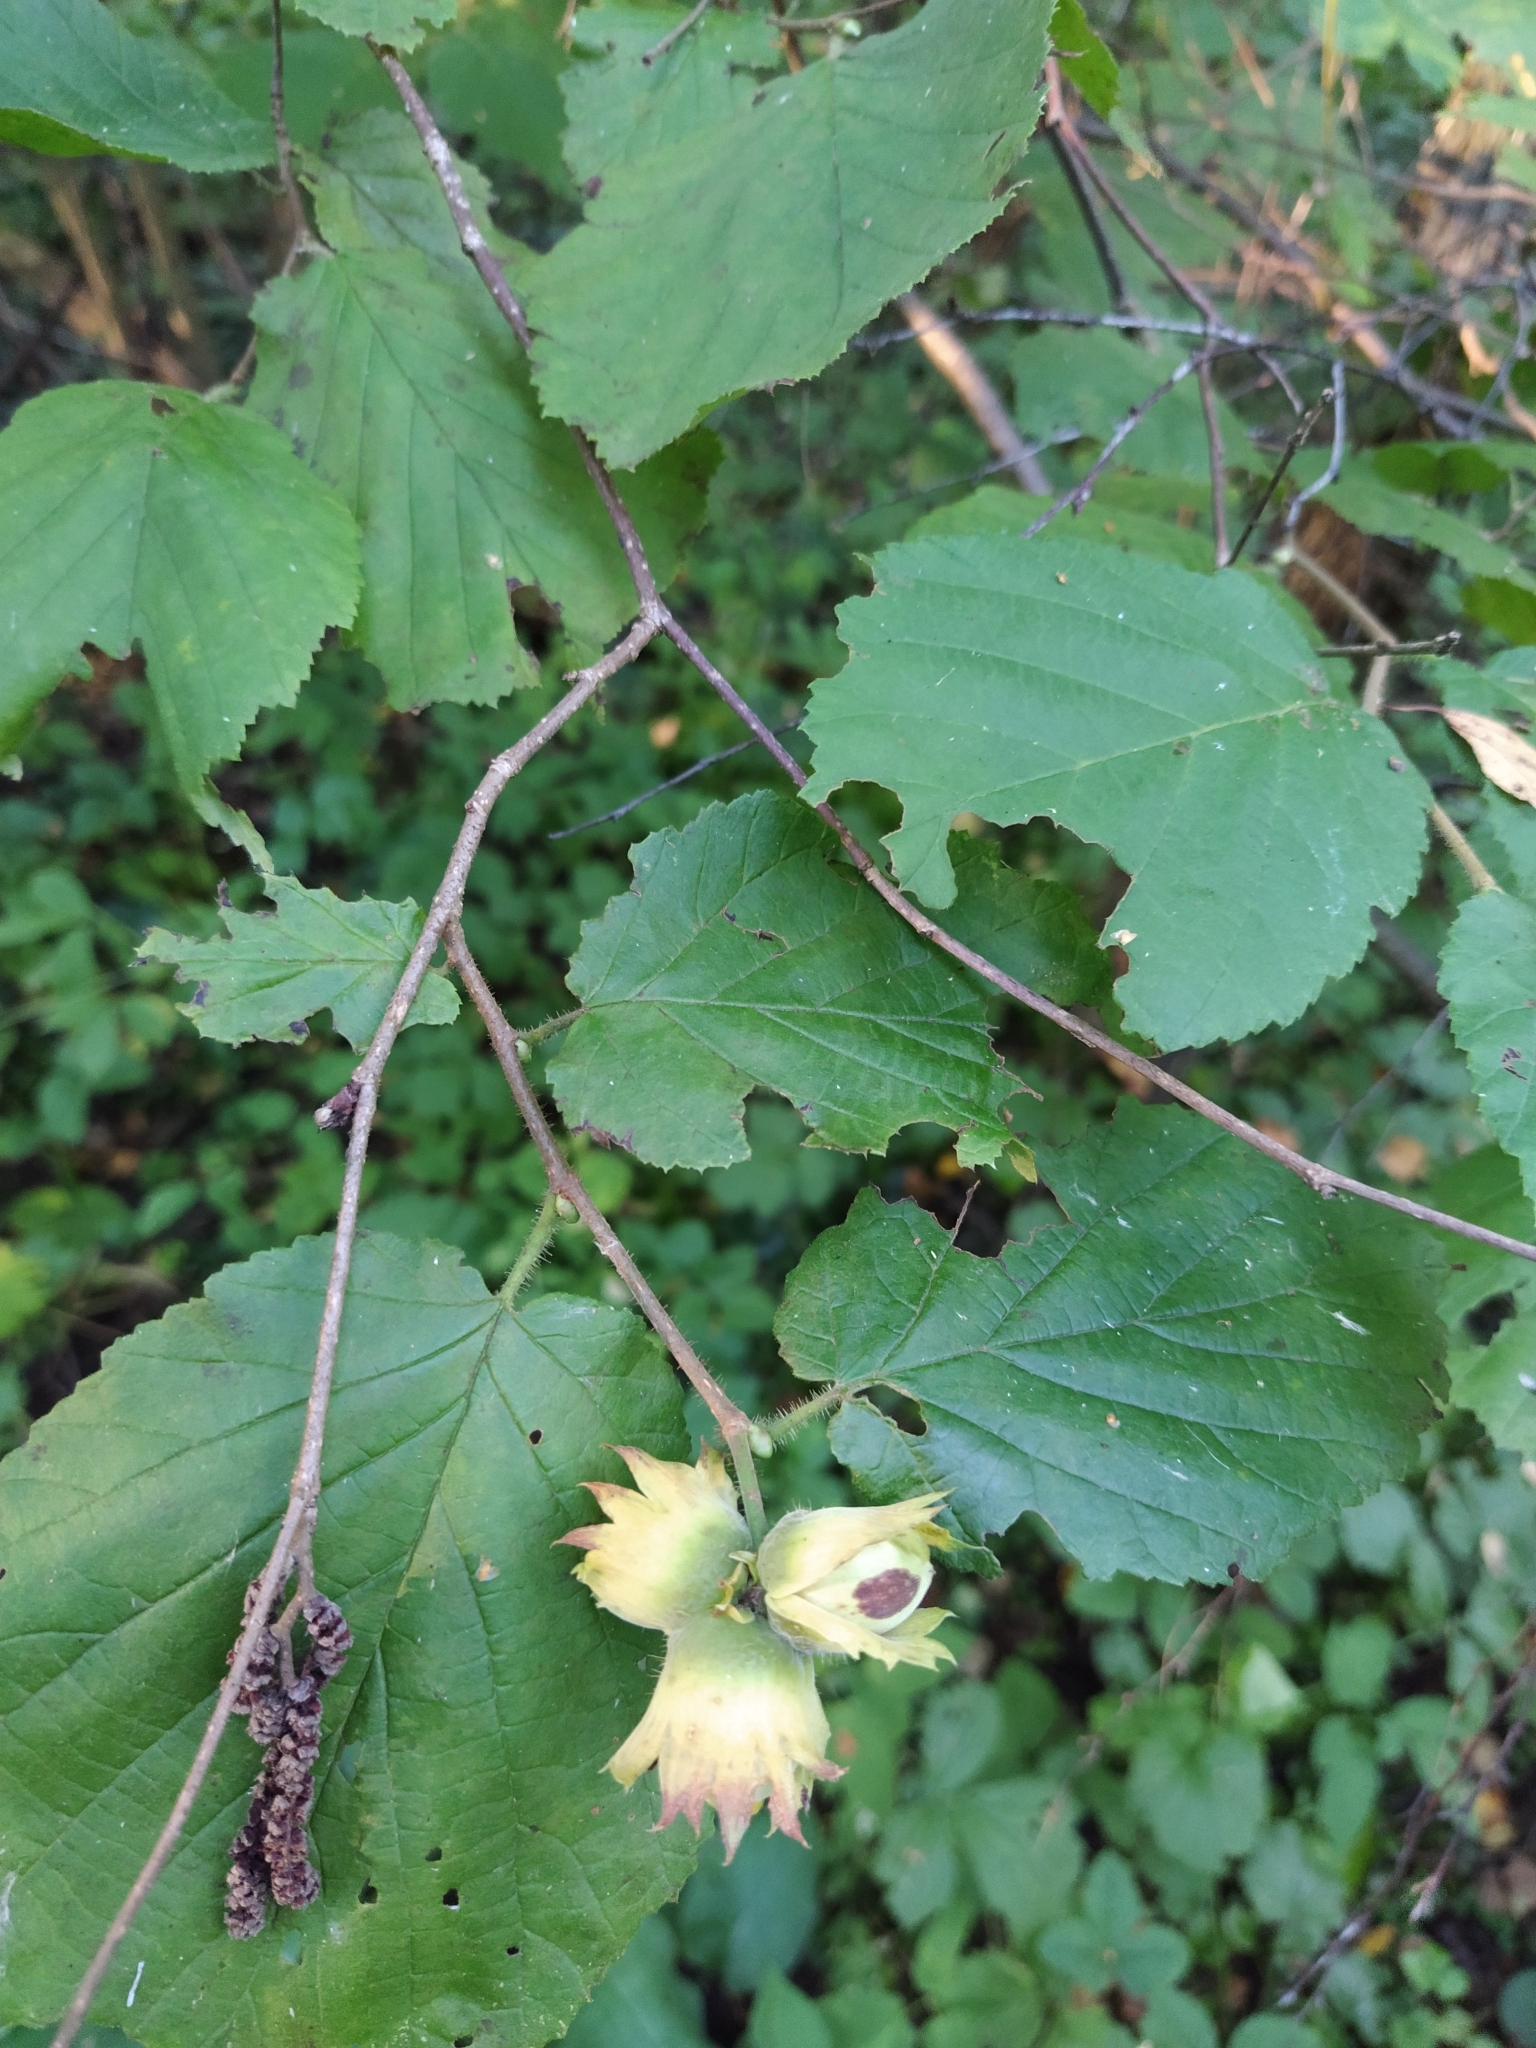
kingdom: Plantae
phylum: Tracheophyta
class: Magnoliopsida
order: Fagales
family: Betulaceae
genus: Corylus
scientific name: Corylus avellana
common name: European hazel
